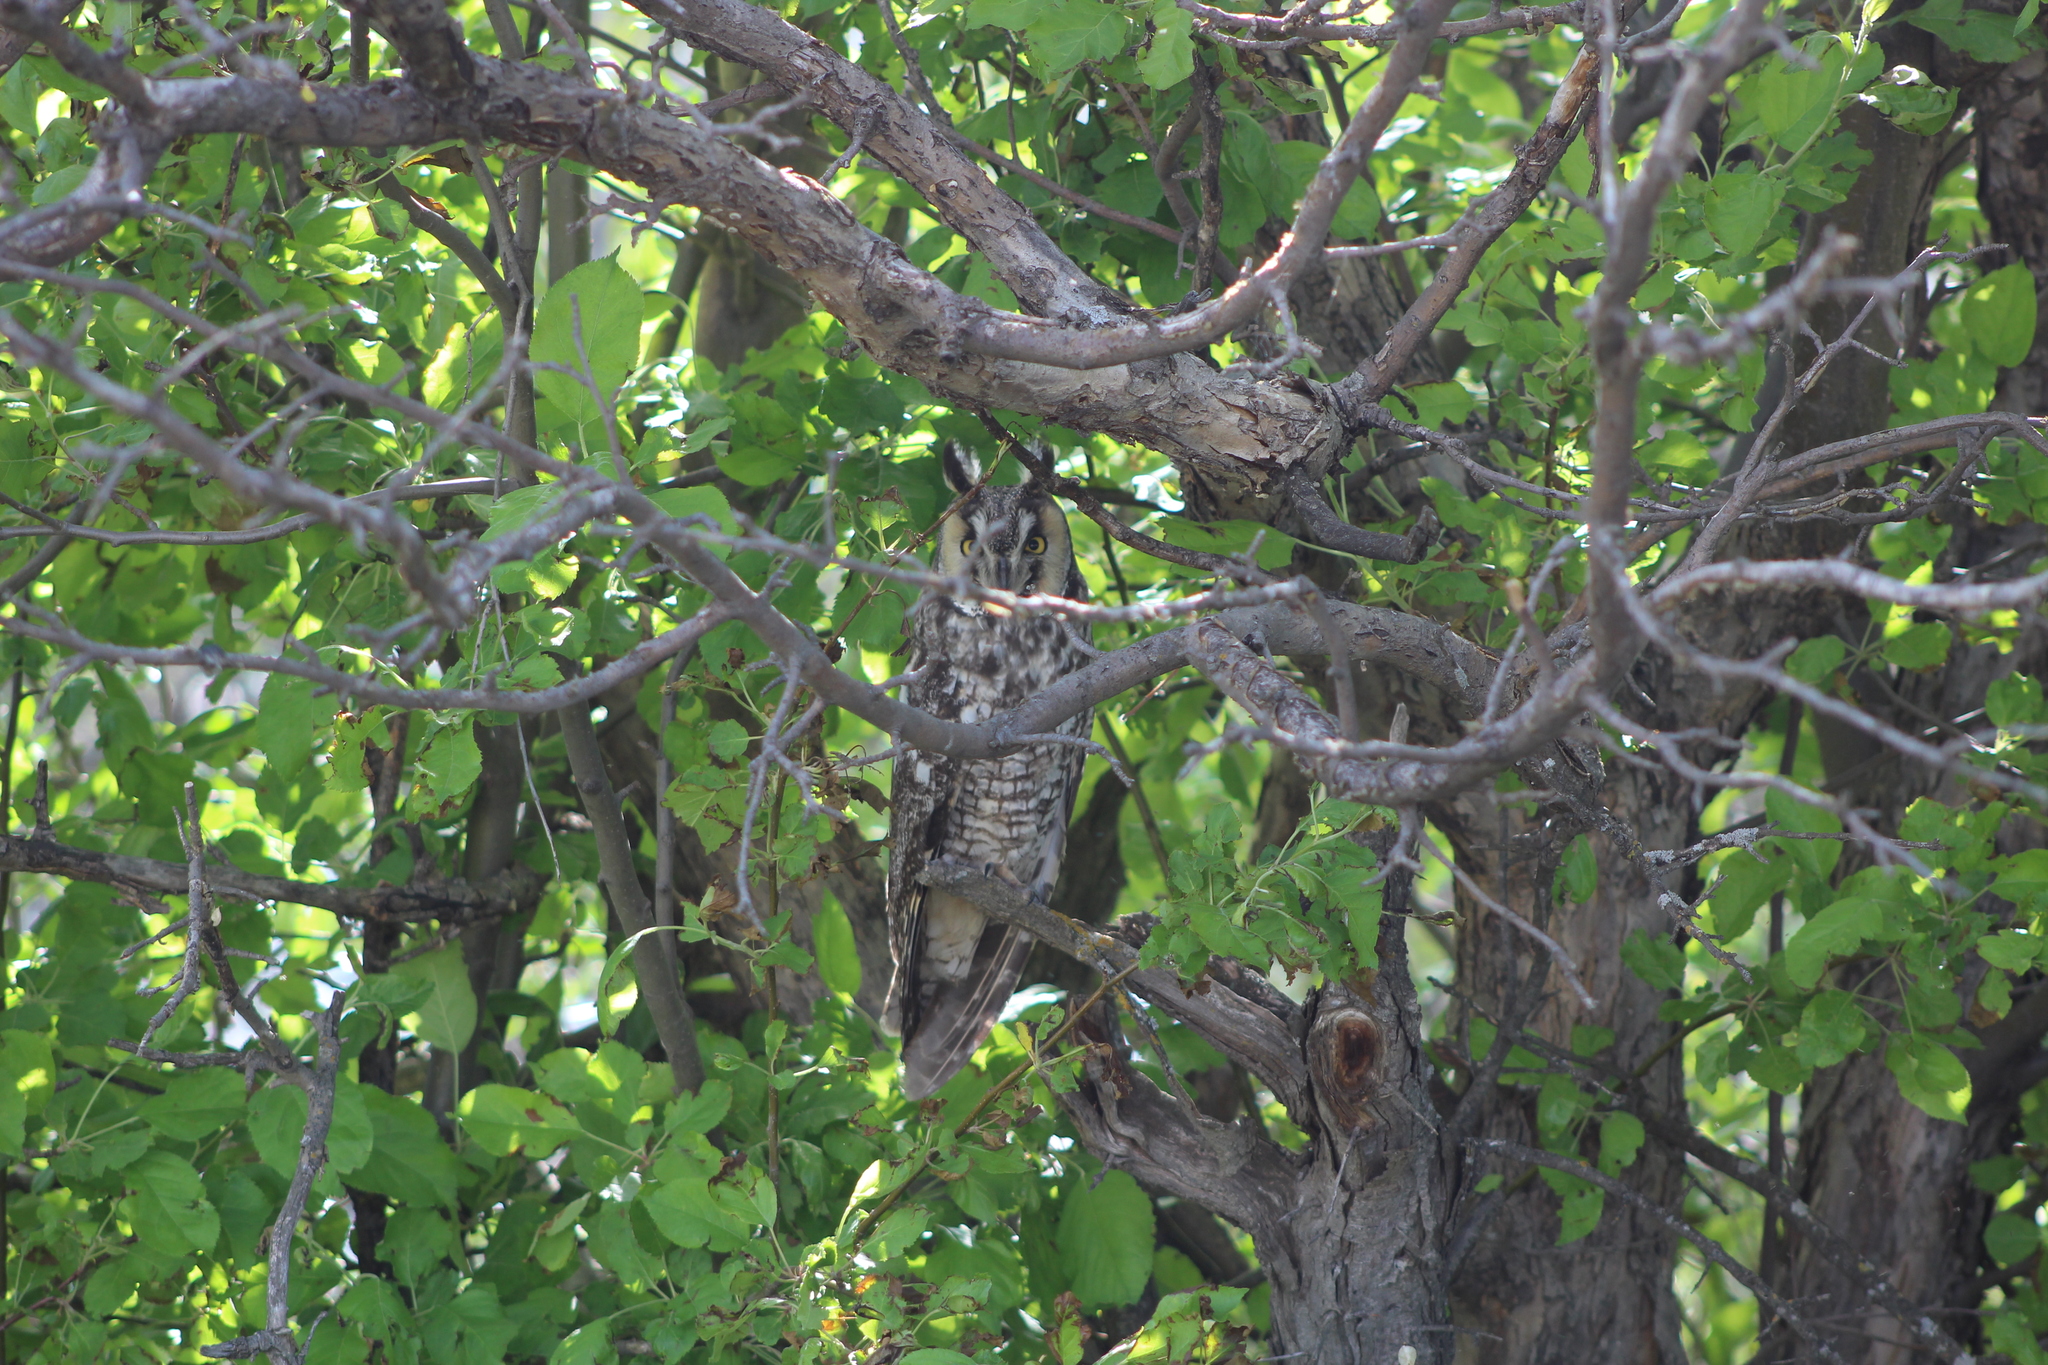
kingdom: Animalia
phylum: Chordata
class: Aves
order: Strigiformes
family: Strigidae
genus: Asio
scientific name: Asio otus
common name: Long-eared owl
